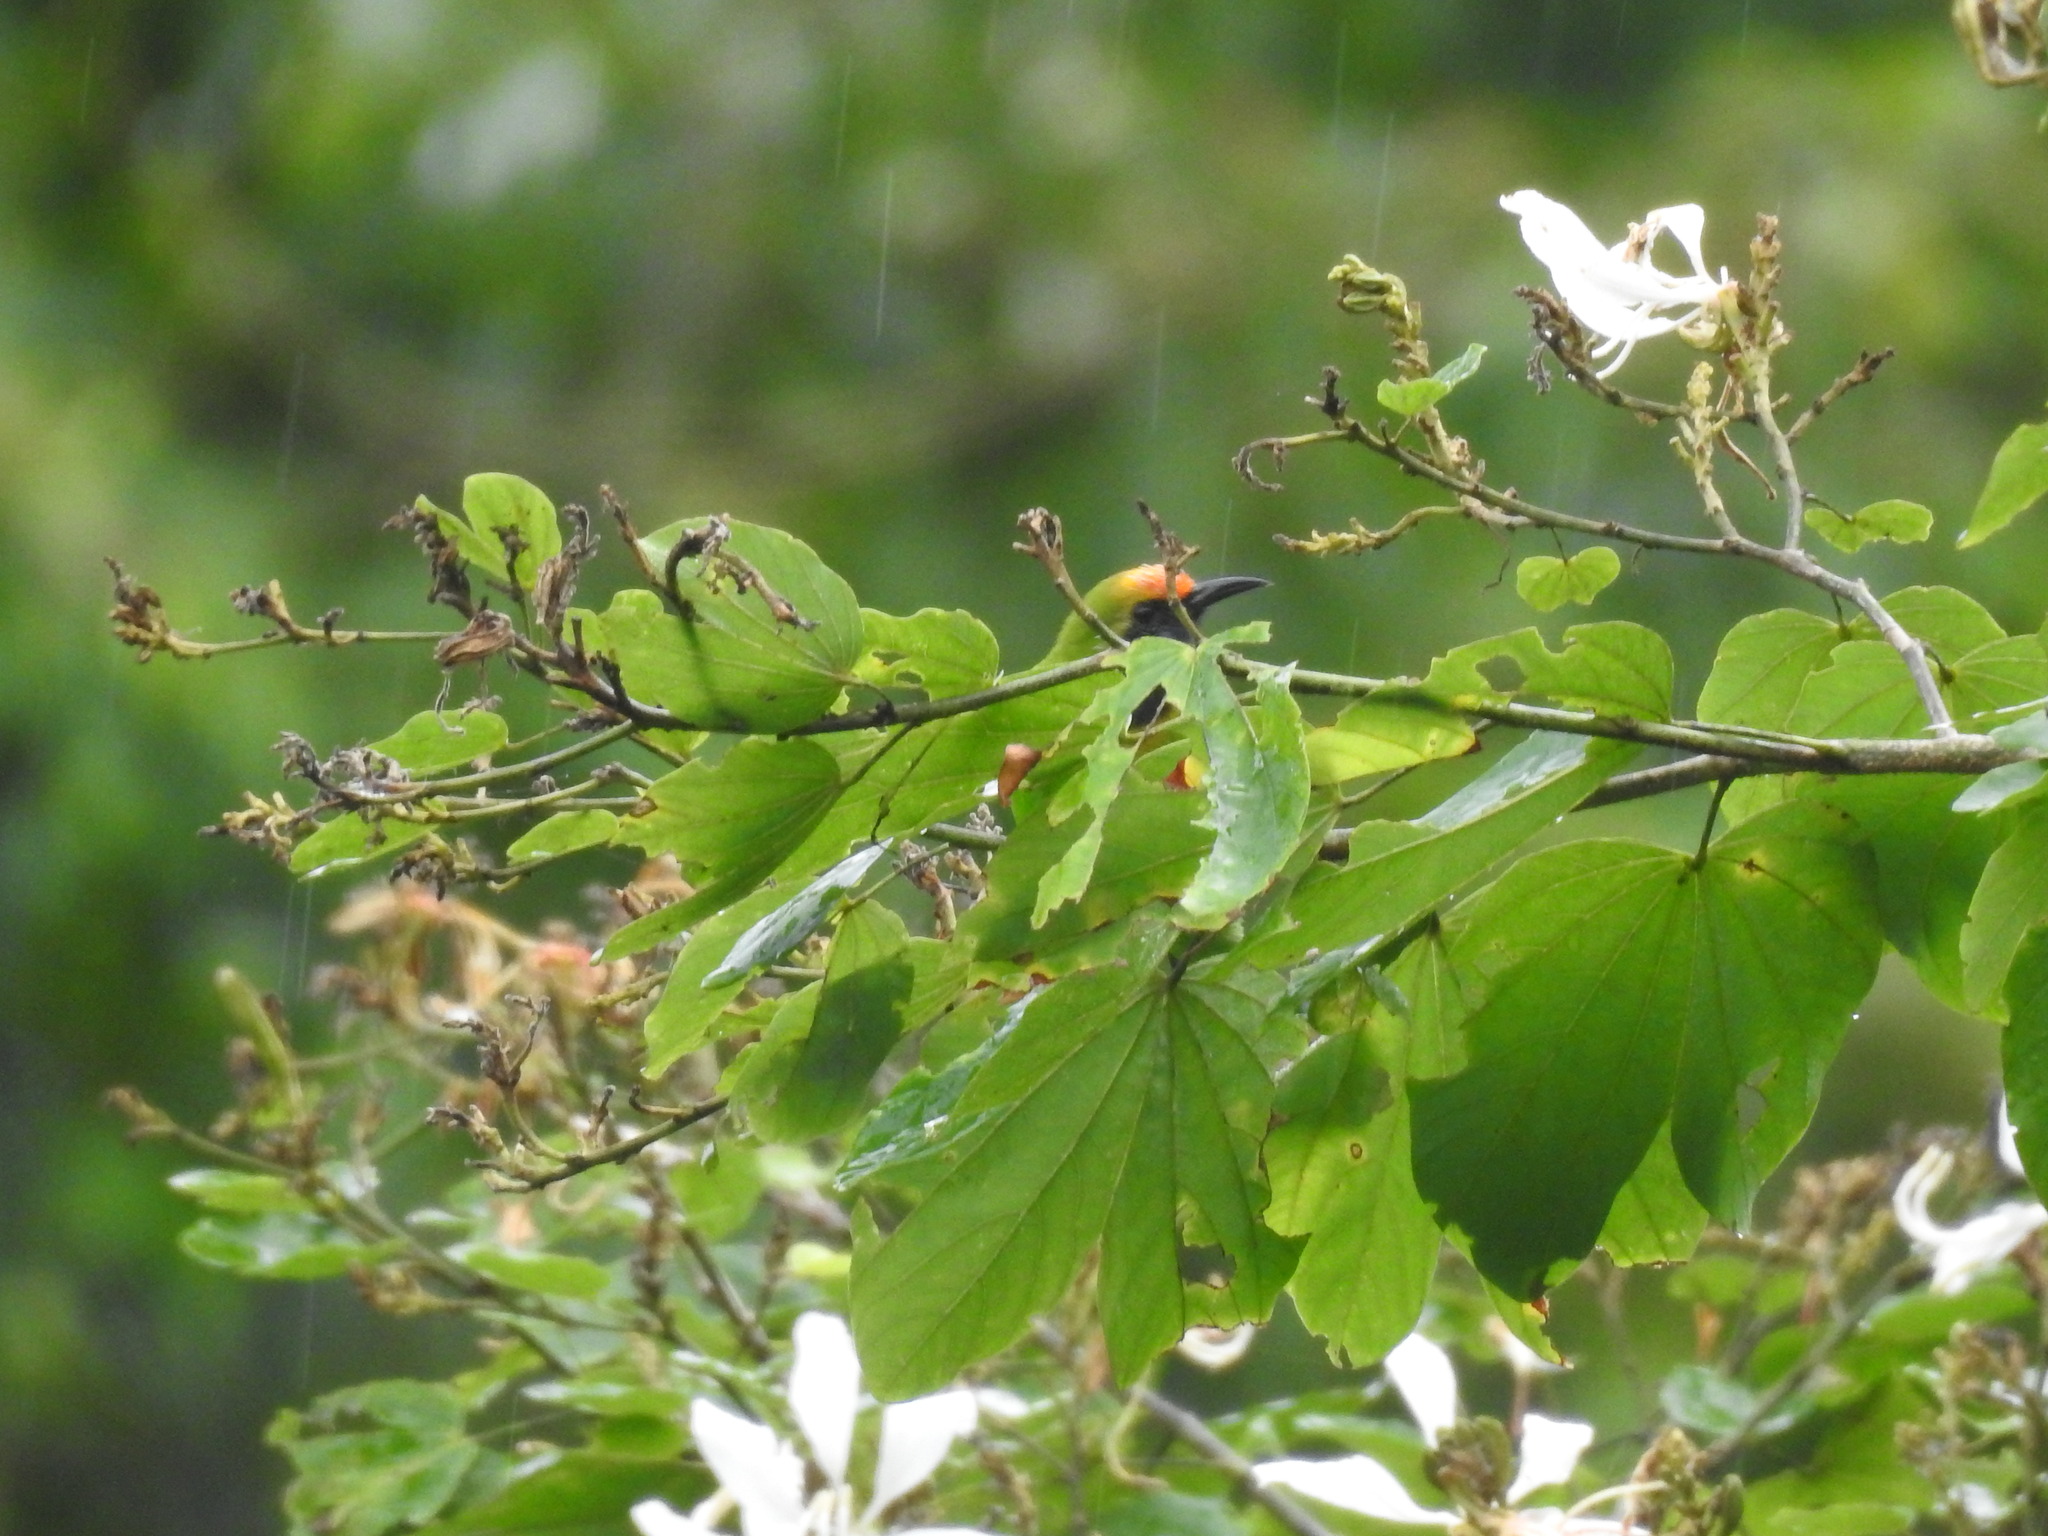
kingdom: Animalia
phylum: Chordata
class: Aves
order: Passeriformes
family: Chloropseidae
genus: Chloropsis
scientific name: Chloropsis aurifrons
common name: Golden-fronted leafbird
